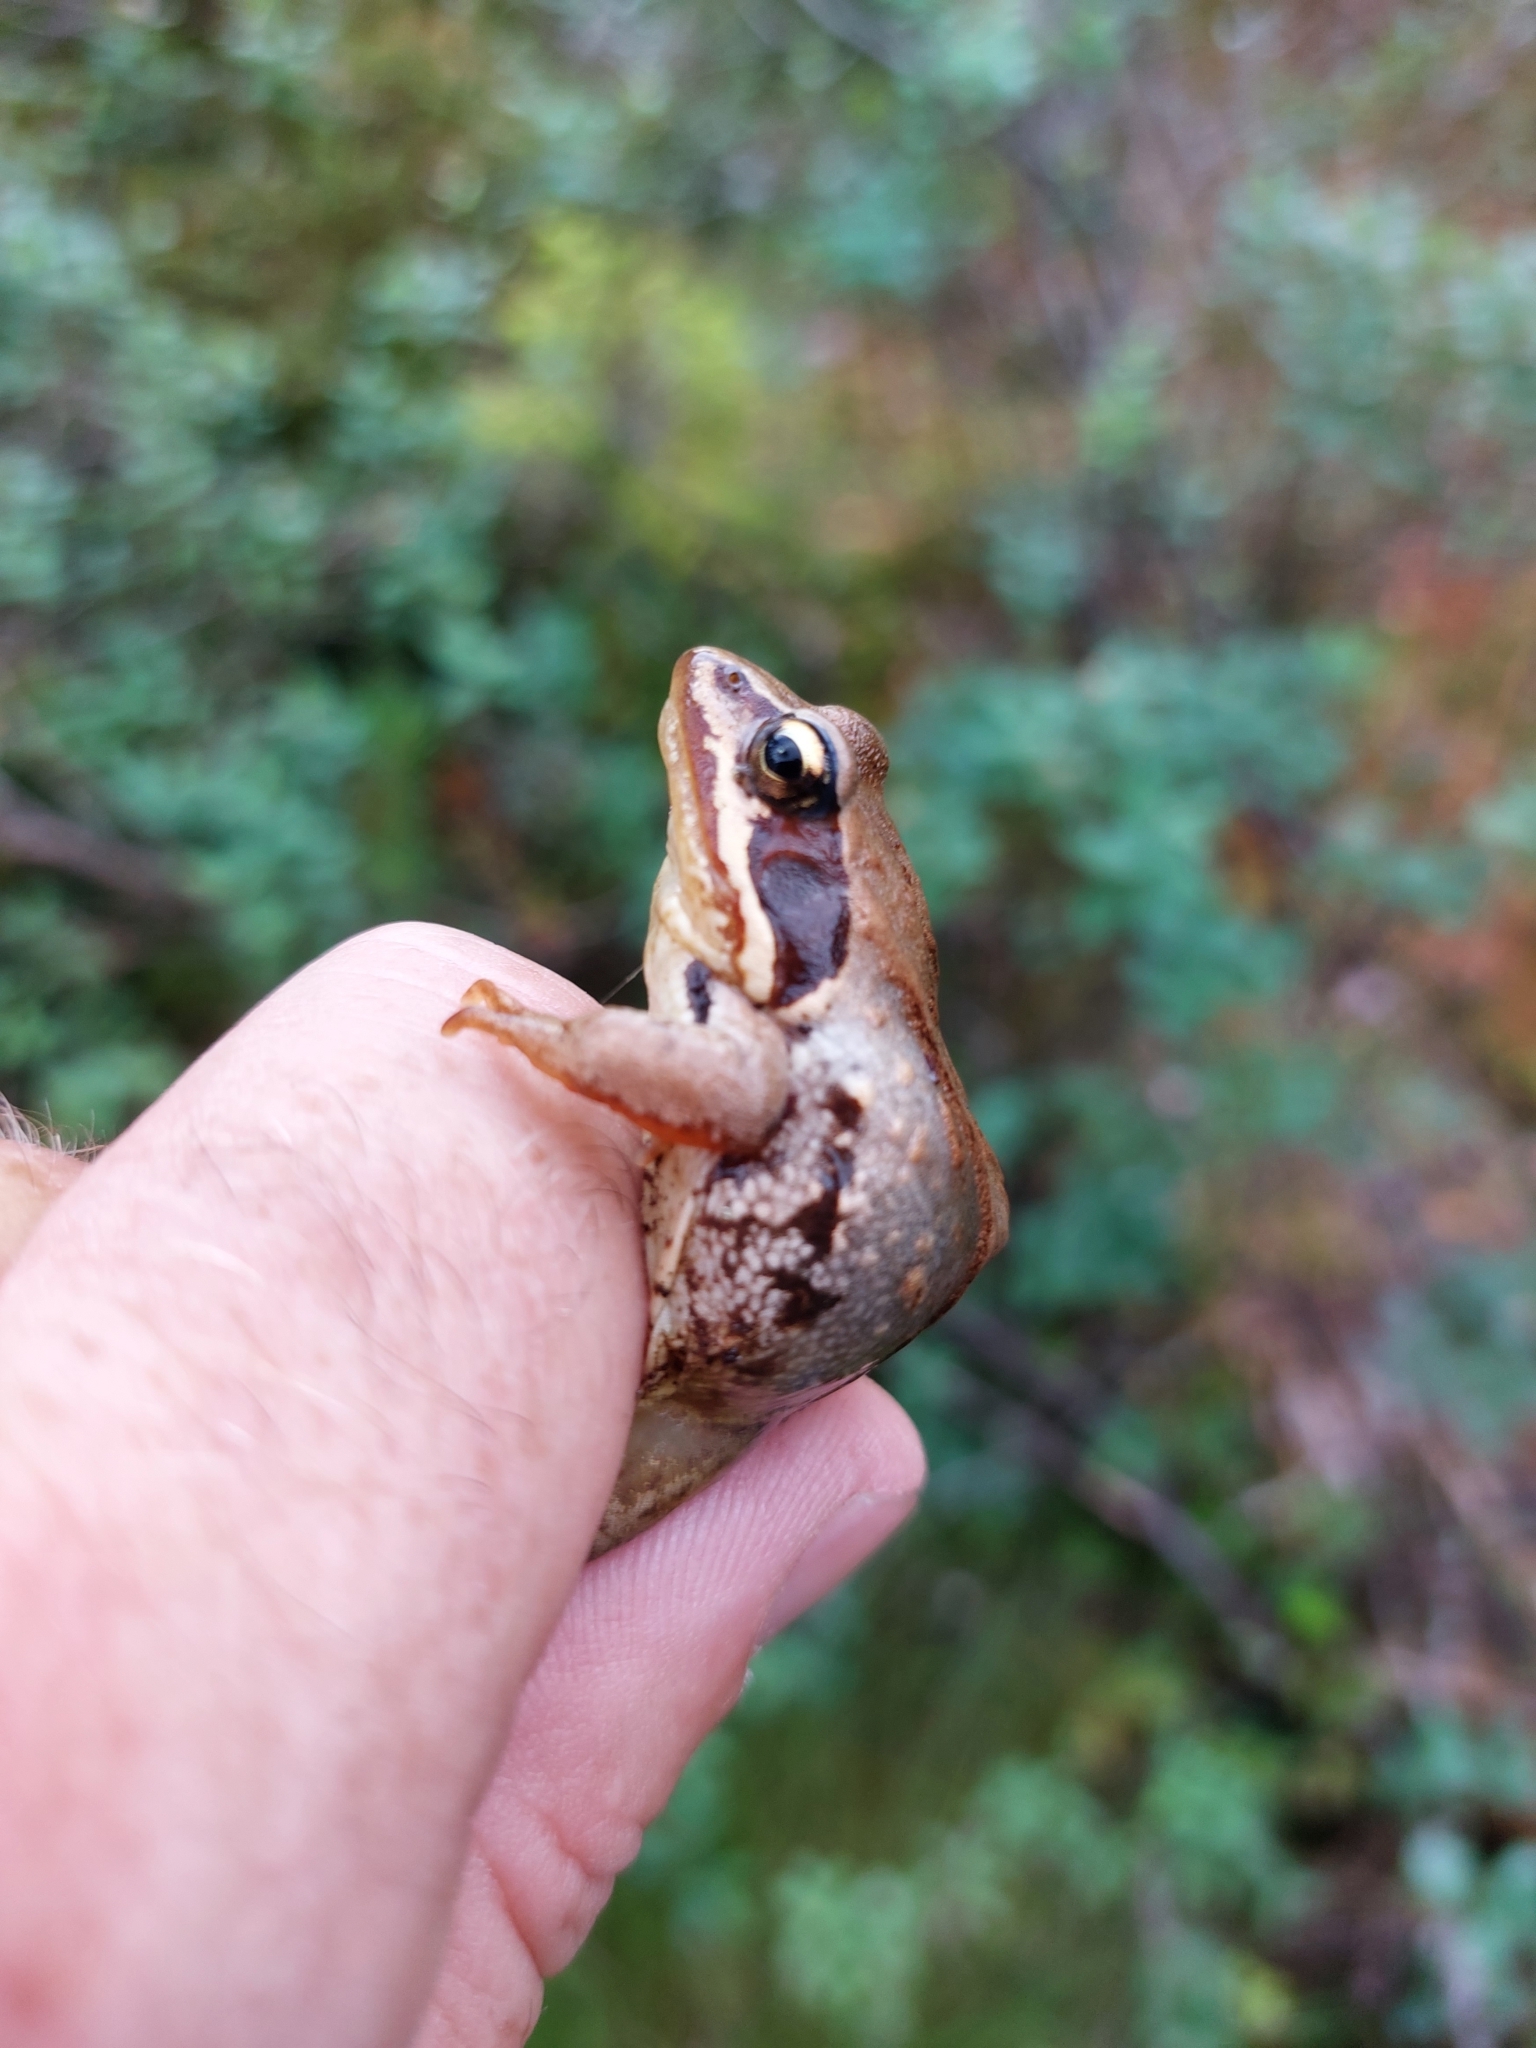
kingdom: Animalia
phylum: Chordata
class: Amphibia
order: Anura
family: Ranidae
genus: Rana
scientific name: Rana temporaria
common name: Common frog
